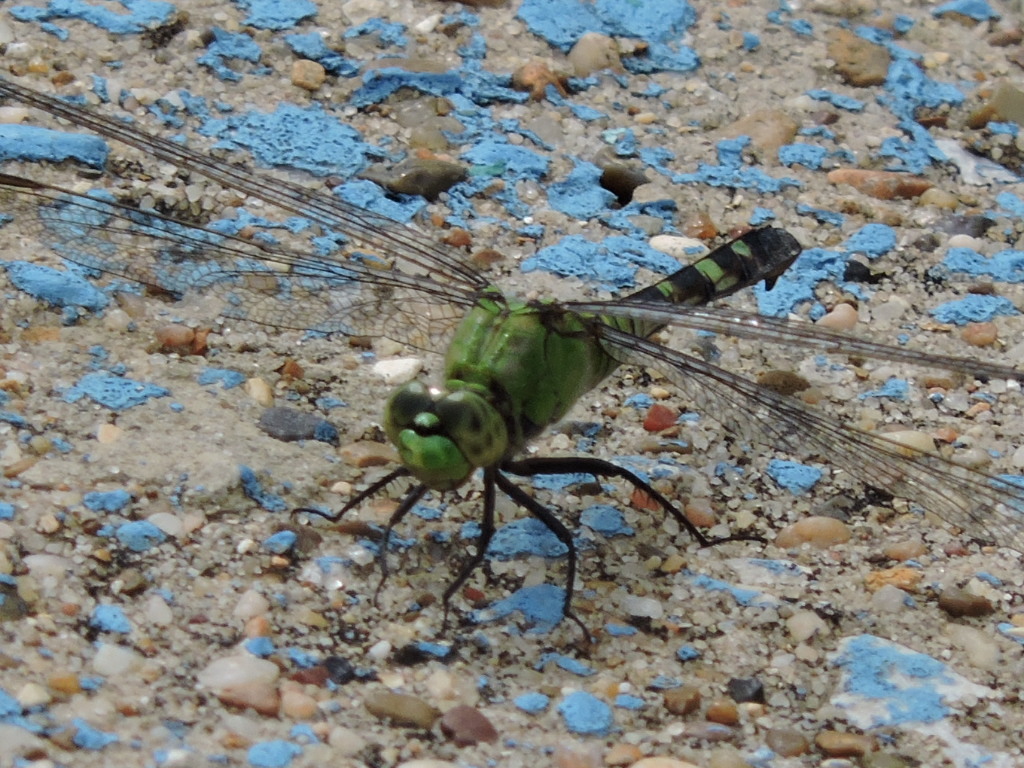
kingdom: Animalia
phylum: Arthropoda
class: Insecta
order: Odonata
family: Libellulidae
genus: Erythemis
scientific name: Erythemis simplicicollis
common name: Eastern pondhawk
